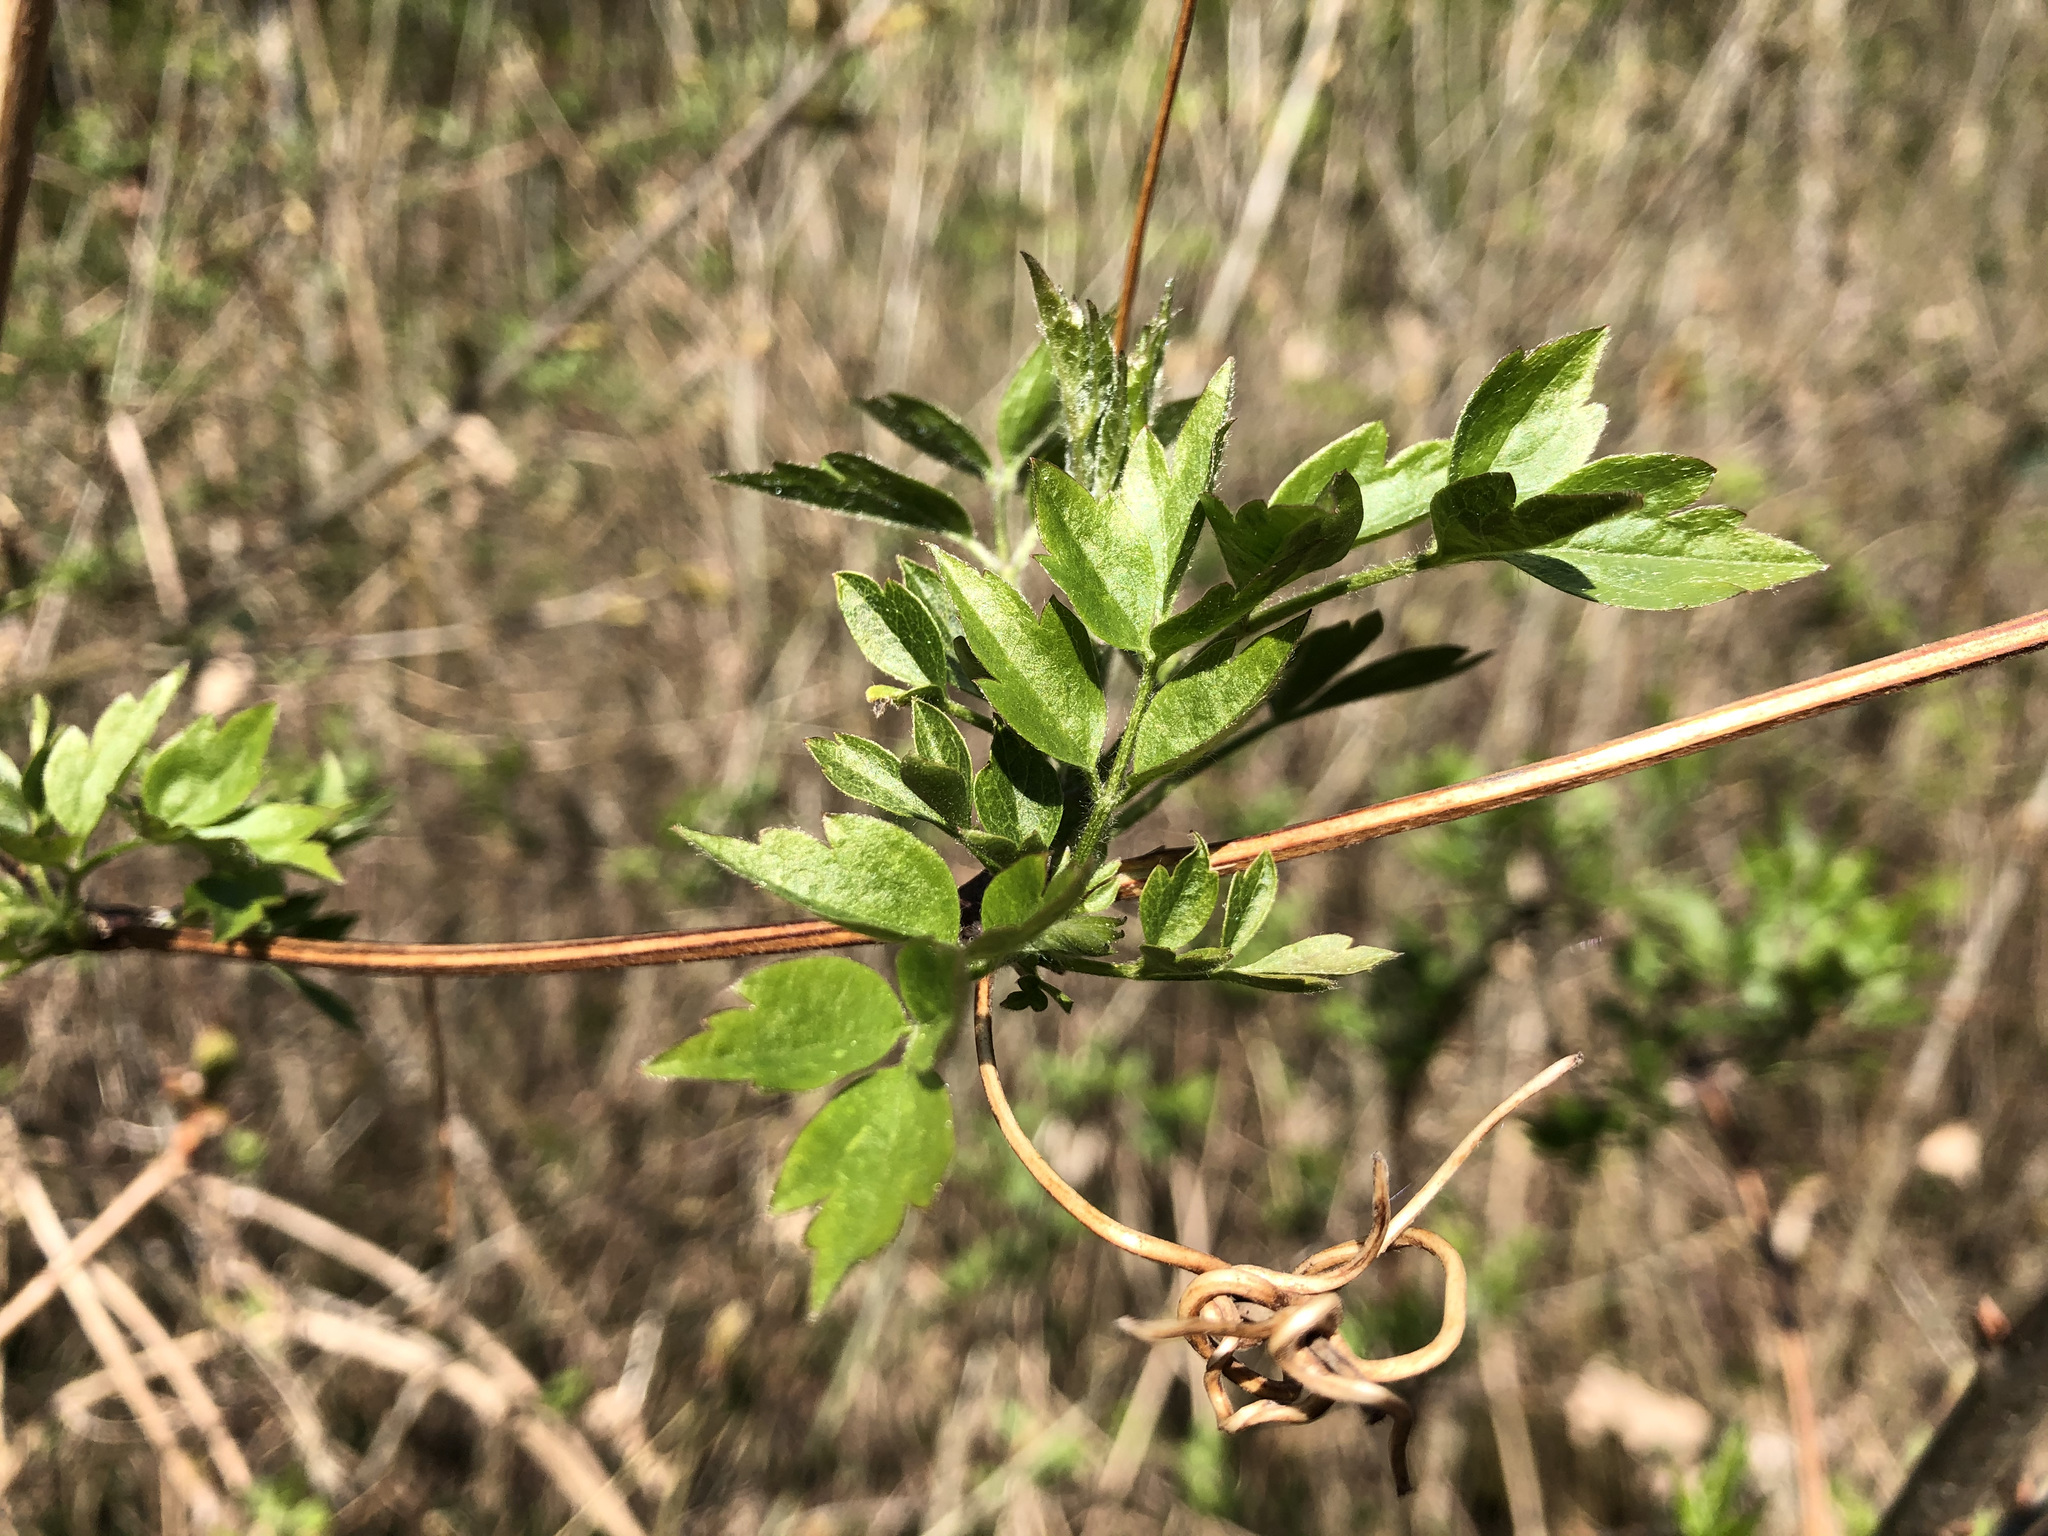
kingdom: Plantae
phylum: Tracheophyta
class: Magnoliopsida
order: Ranunculales
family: Ranunculaceae
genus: Clematis
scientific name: Clematis vitalba
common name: Evergreen clematis
